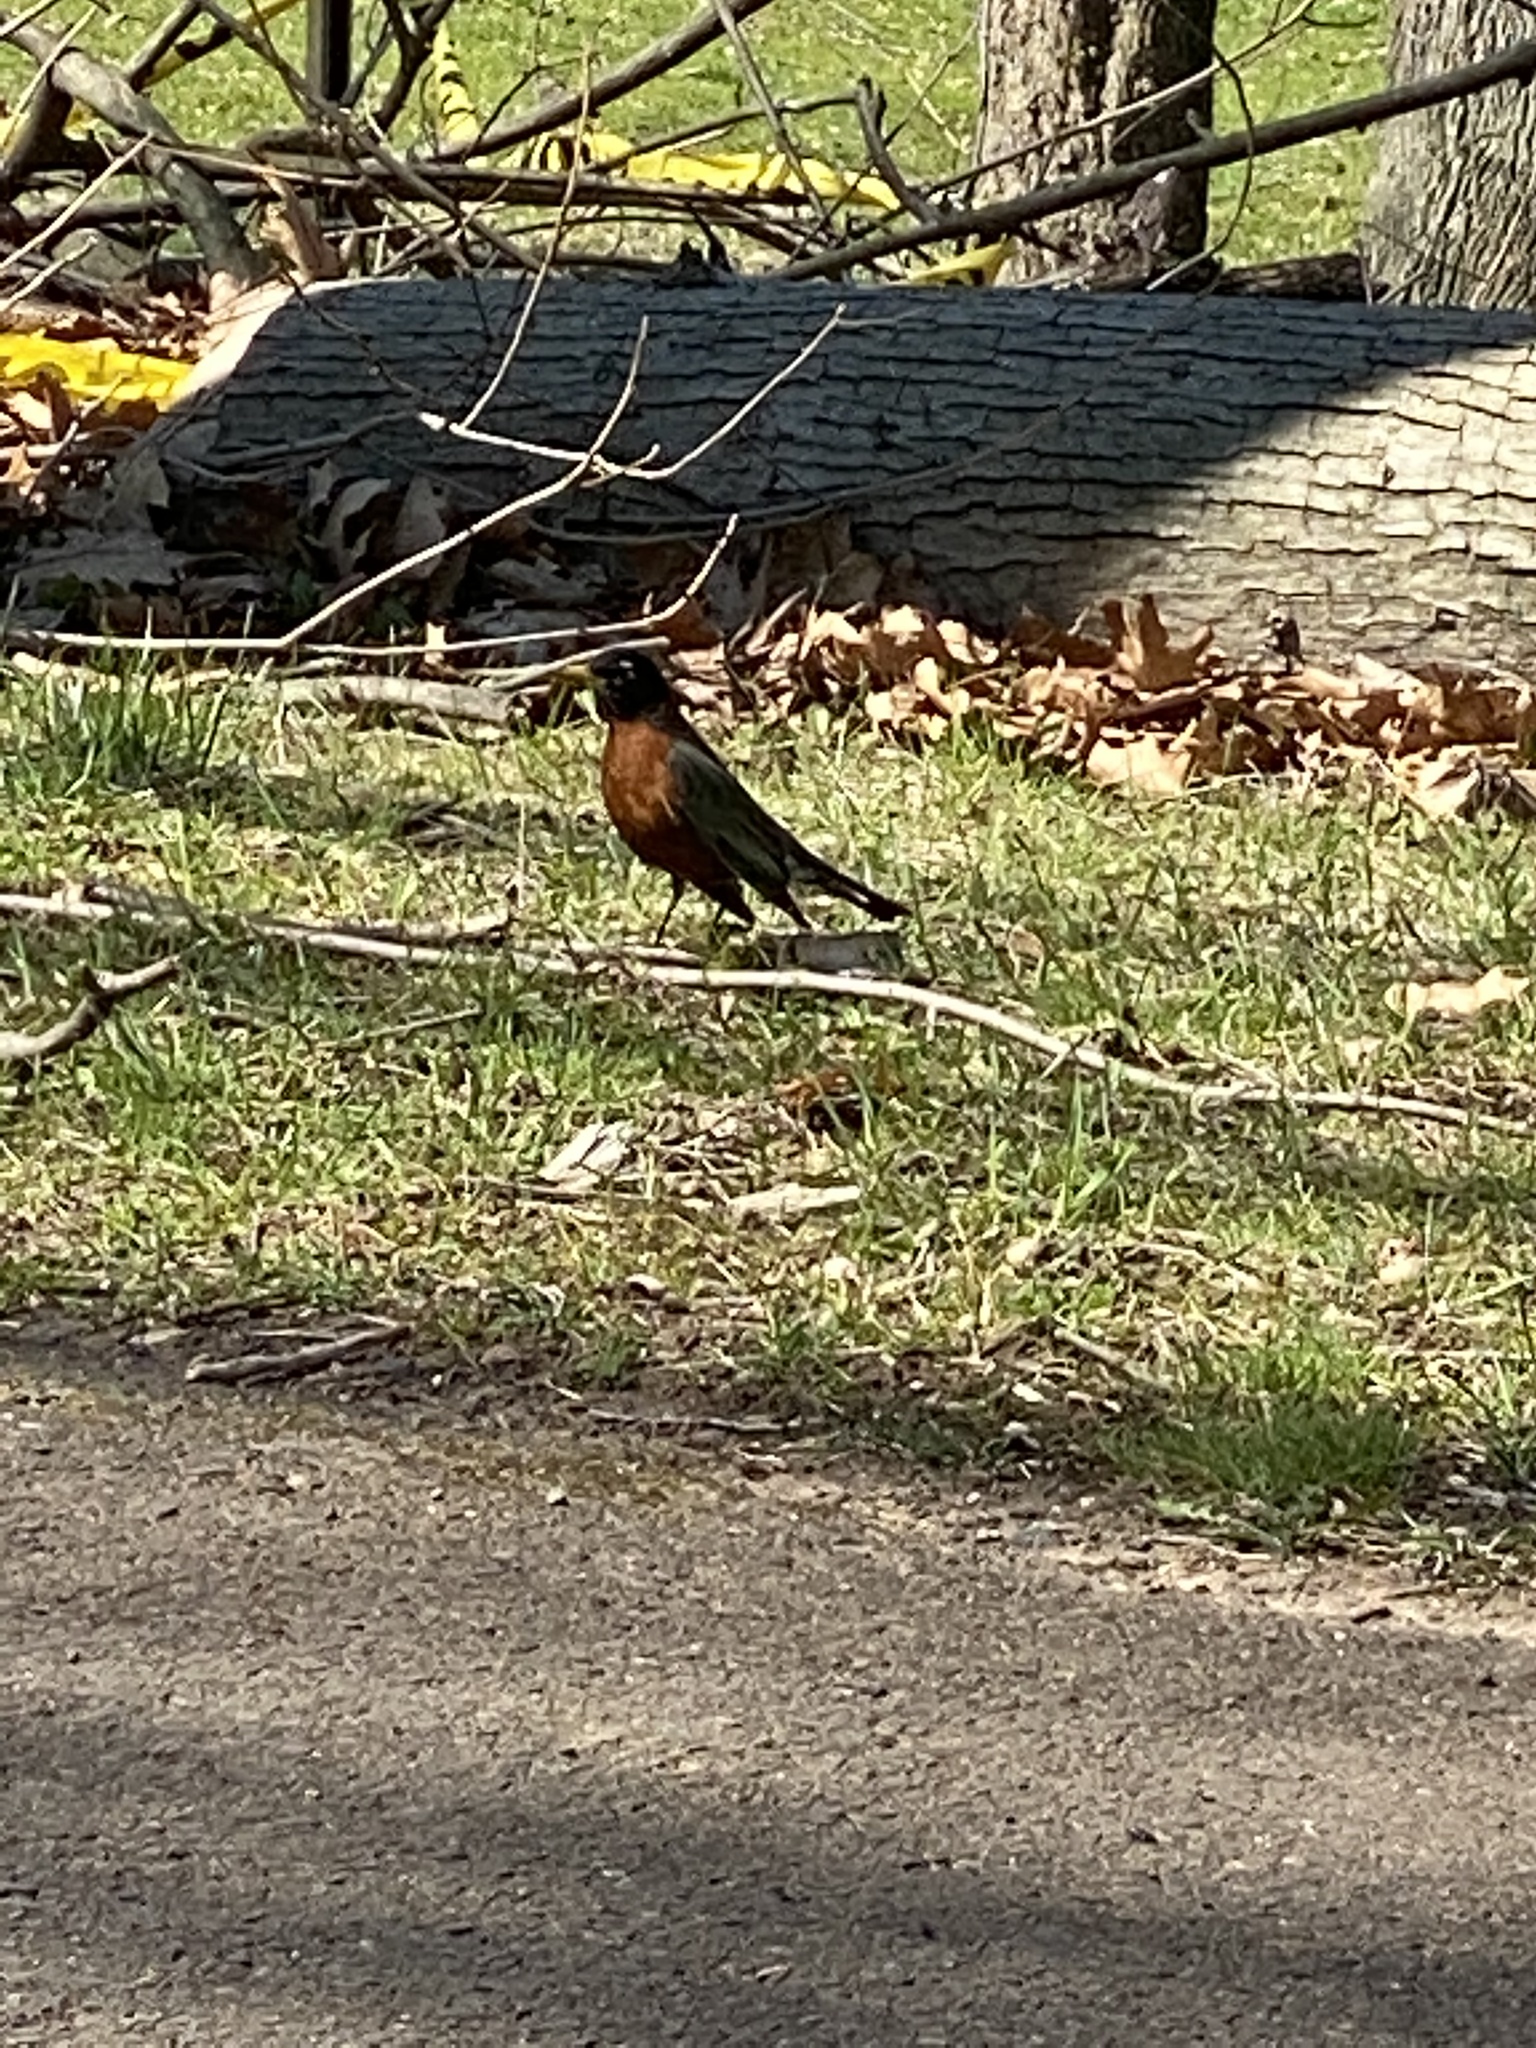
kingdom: Animalia
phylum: Chordata
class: Aves
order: Passeriformes
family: Turdidae
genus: Turdus
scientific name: Turdus migratorius
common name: American robin
